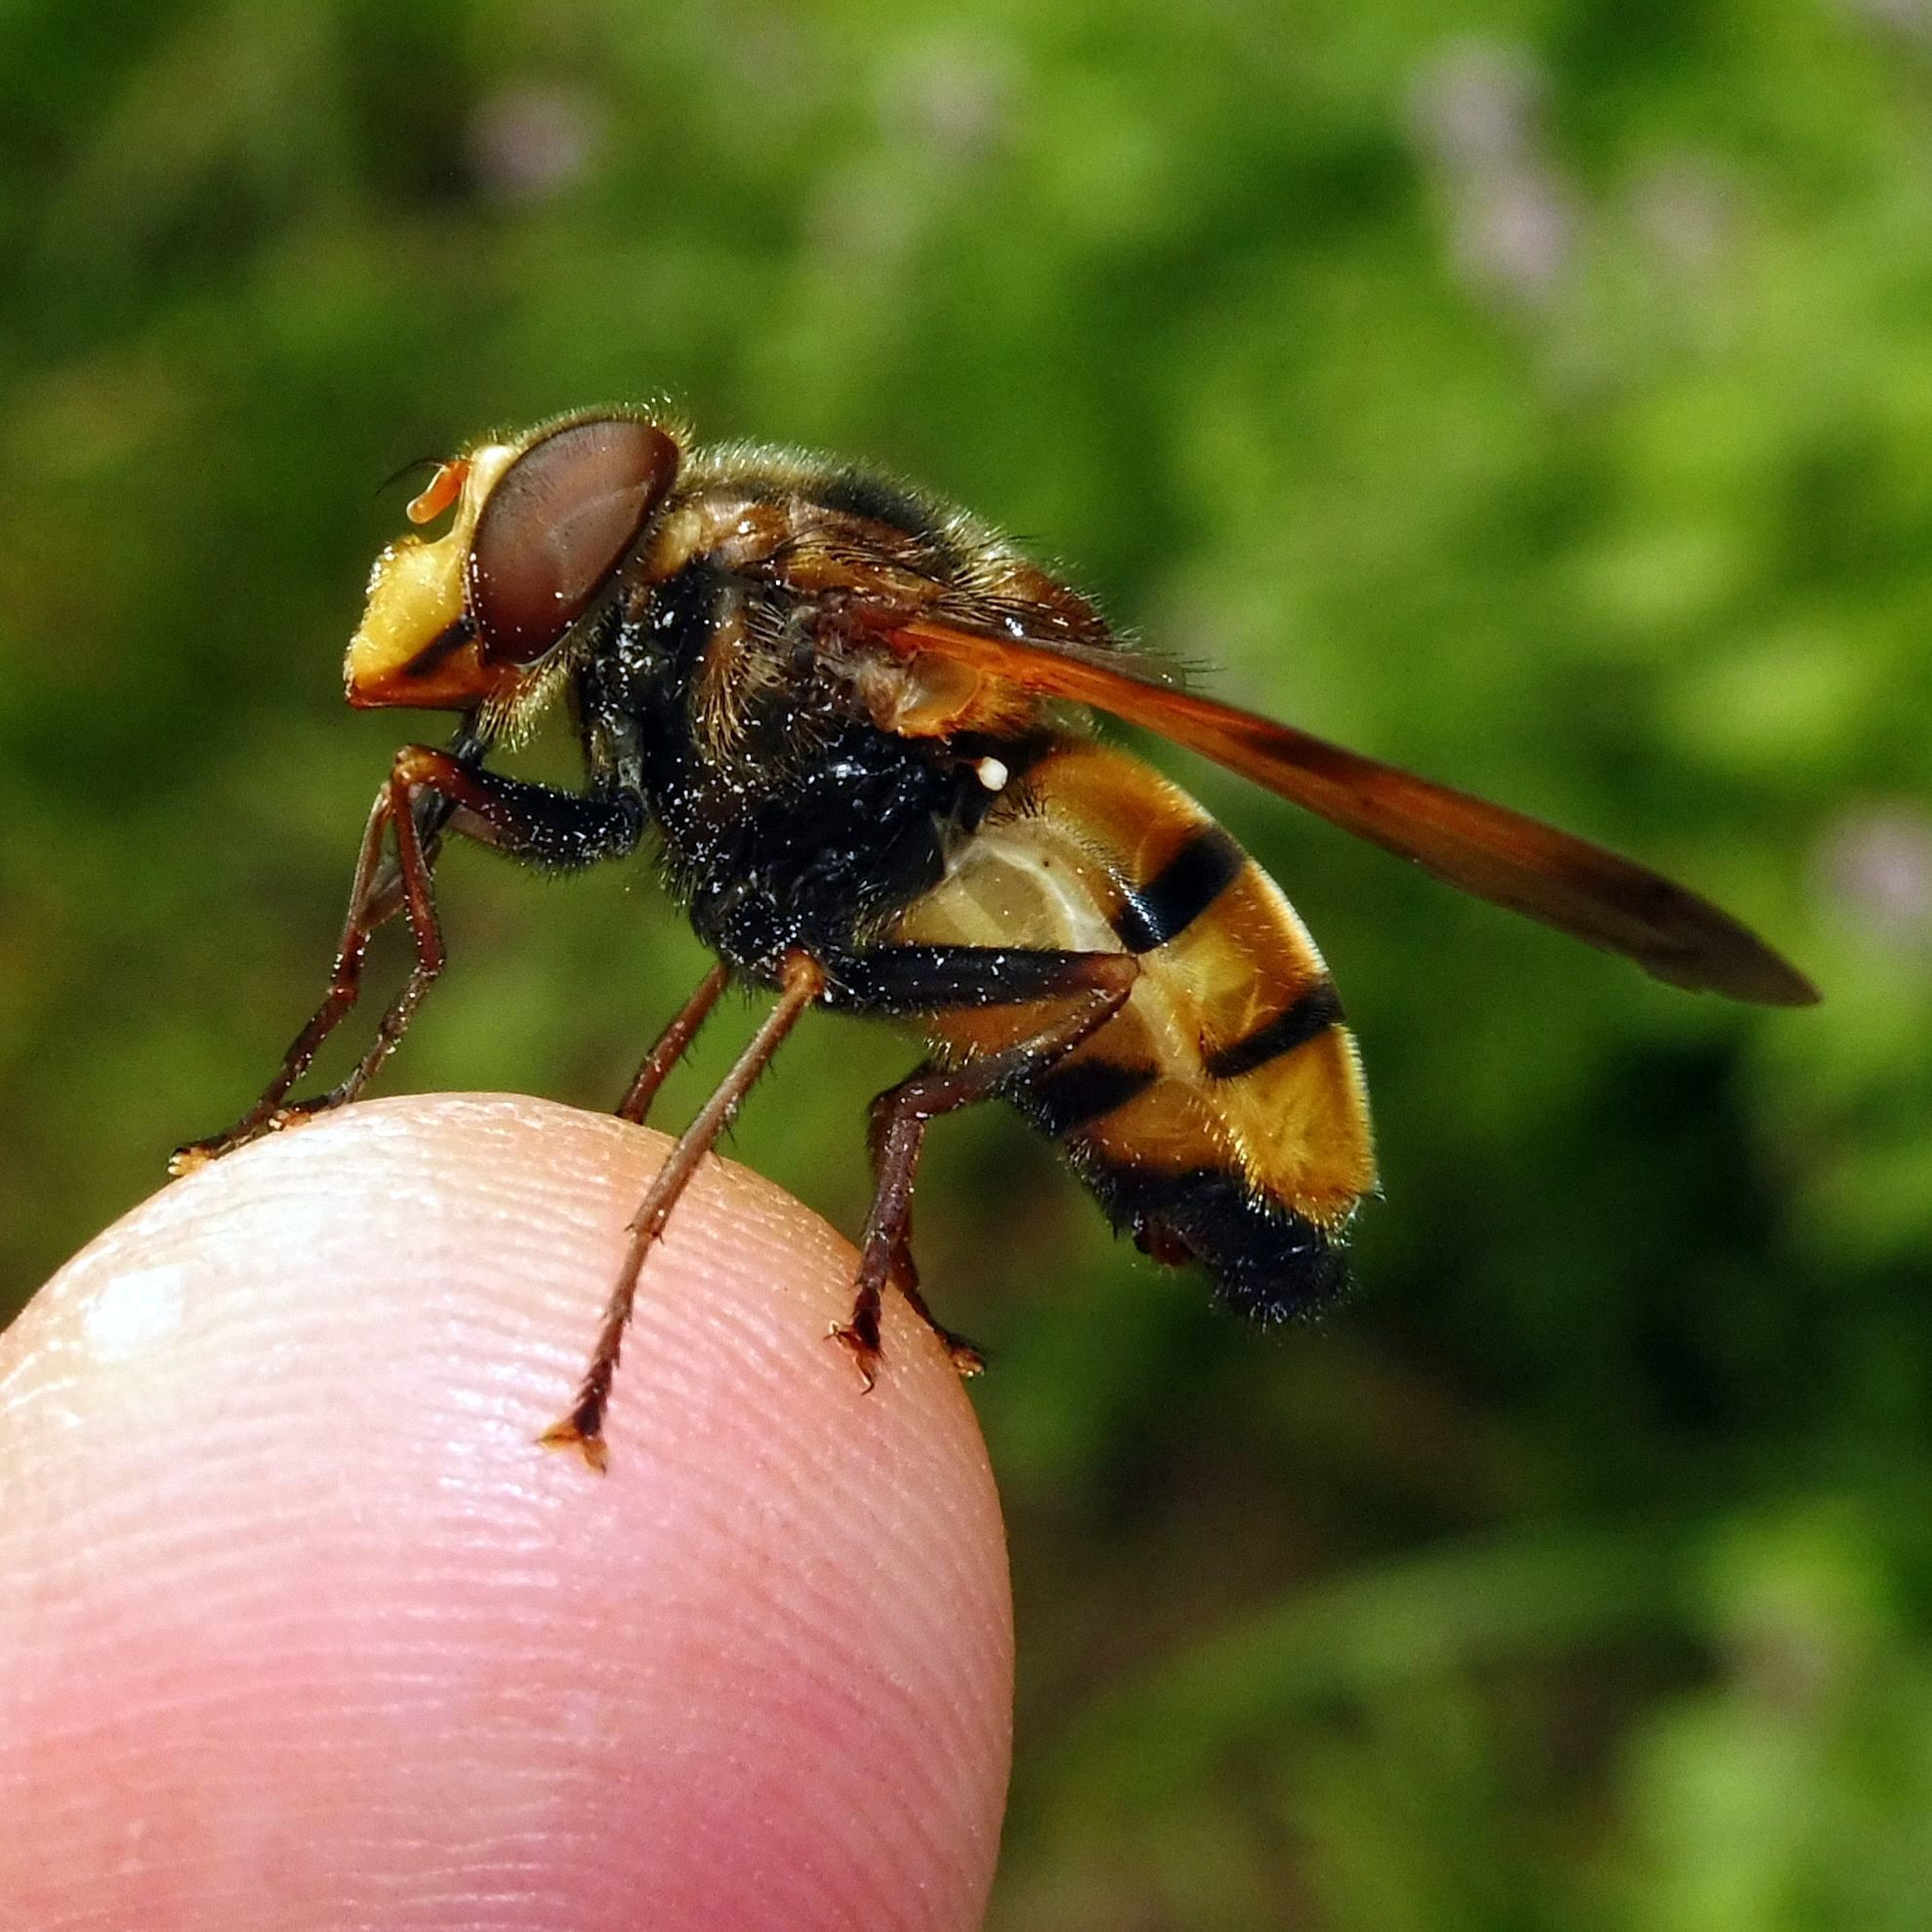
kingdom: Animalia
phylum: Arthropoda
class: Insecta
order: Diptera
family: Syrphidae
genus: Volucella
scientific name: Volucella inanis
